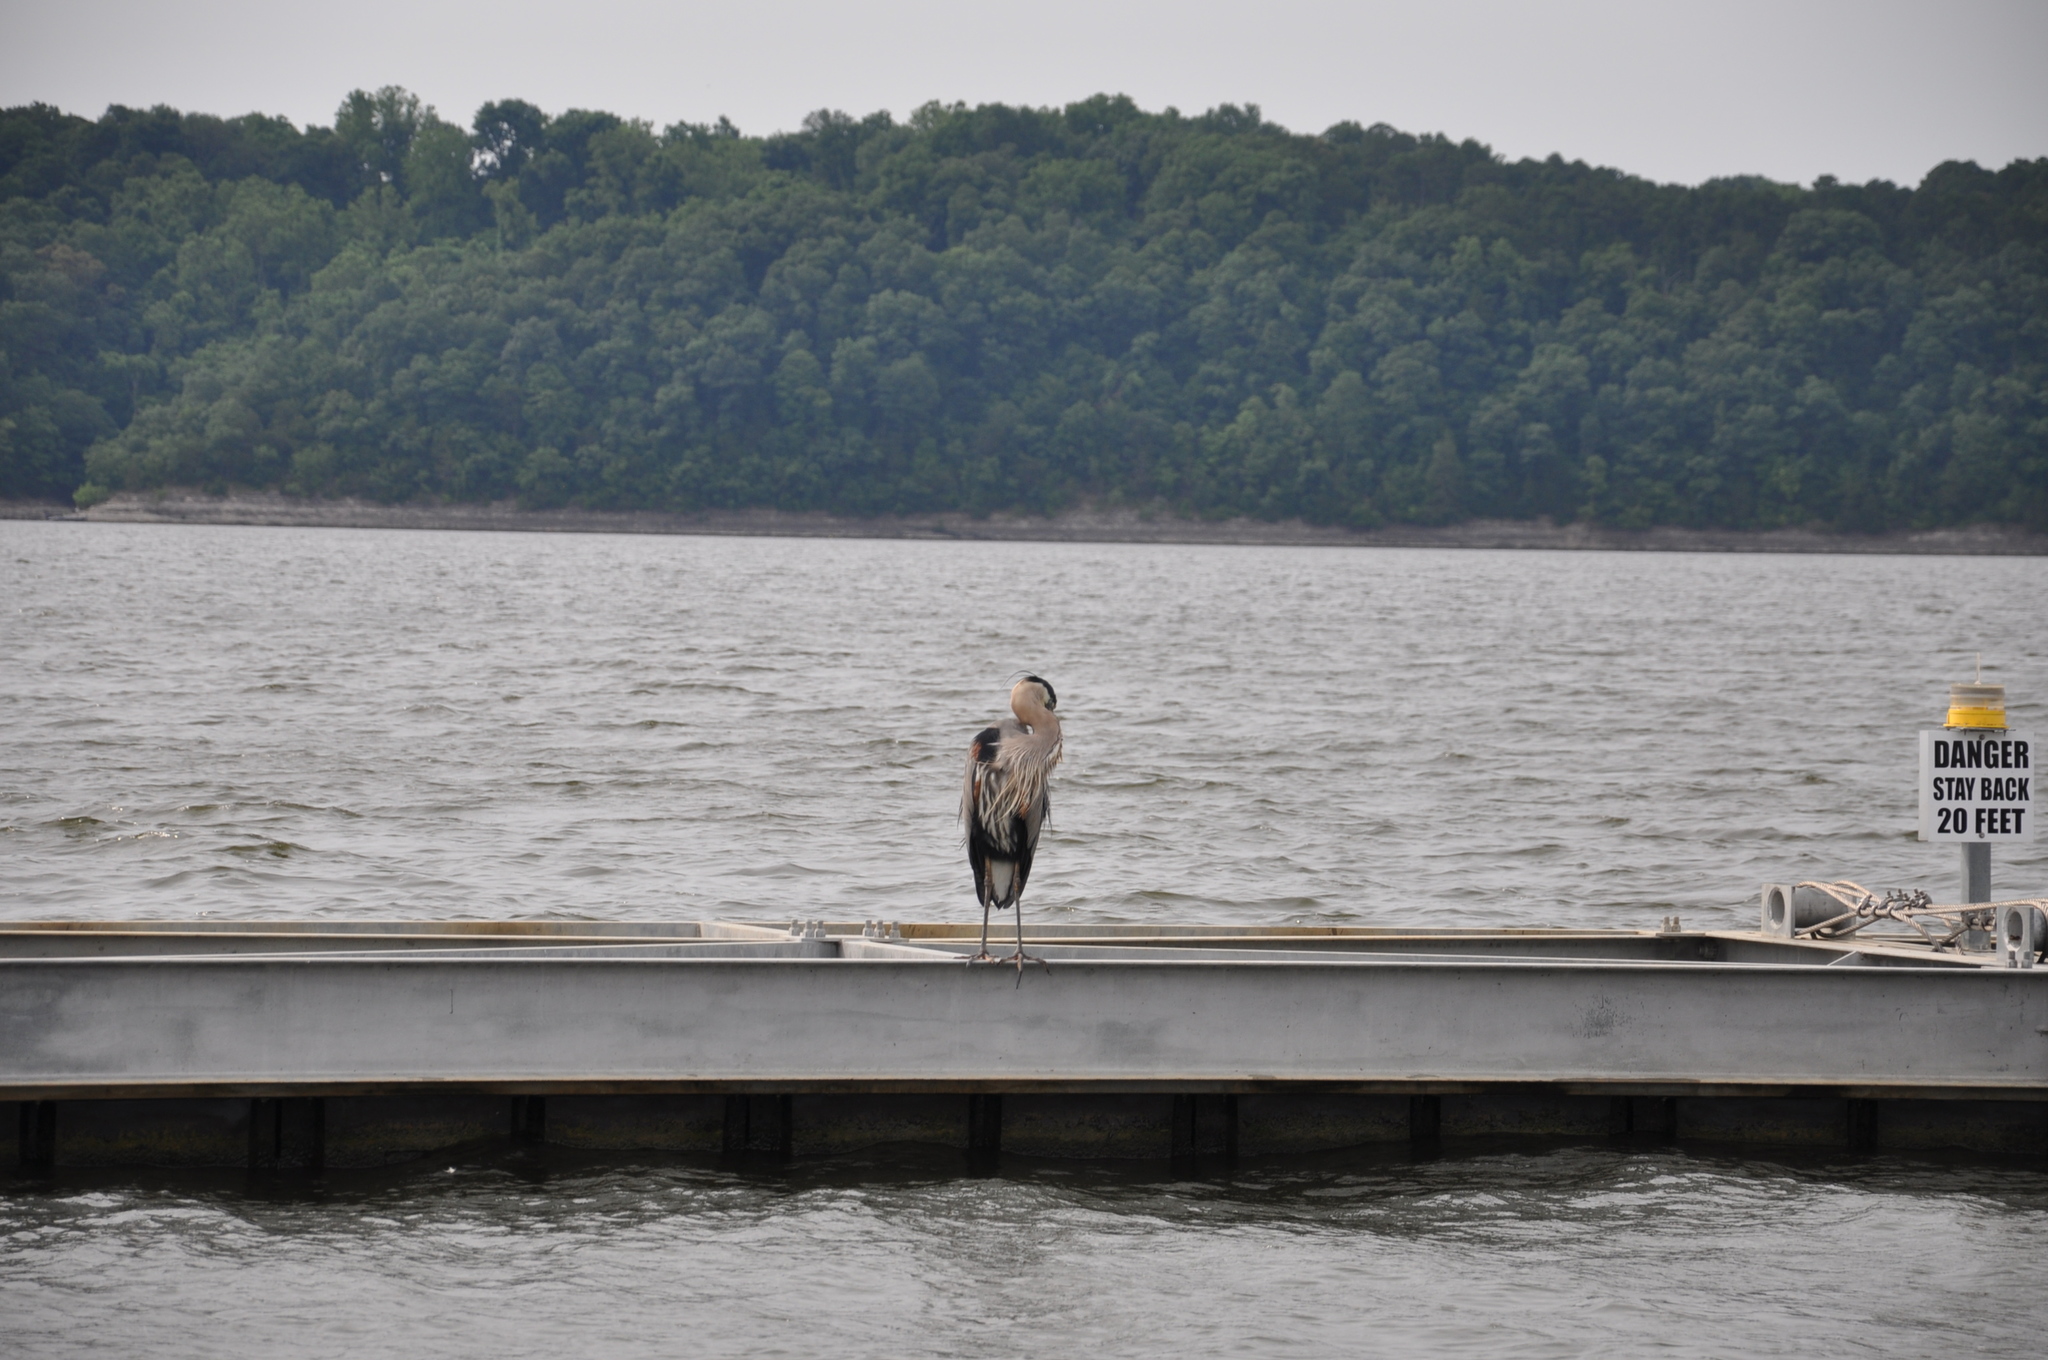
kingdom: Animalia
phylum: Chordata
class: Aves
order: Pelecaniformes
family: Ardeidae
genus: Ardea
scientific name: Ardea herodias
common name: Great blue heron
